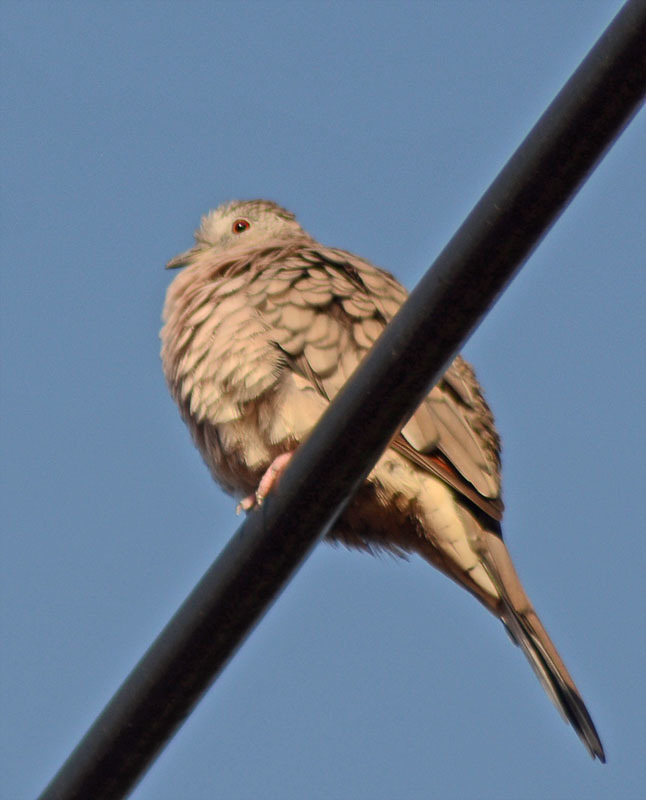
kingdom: Animalia
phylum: Chordata
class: Aves
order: Columbiformes
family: Columbidae
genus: Columbina
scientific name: Columbina inca
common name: Inca dove
